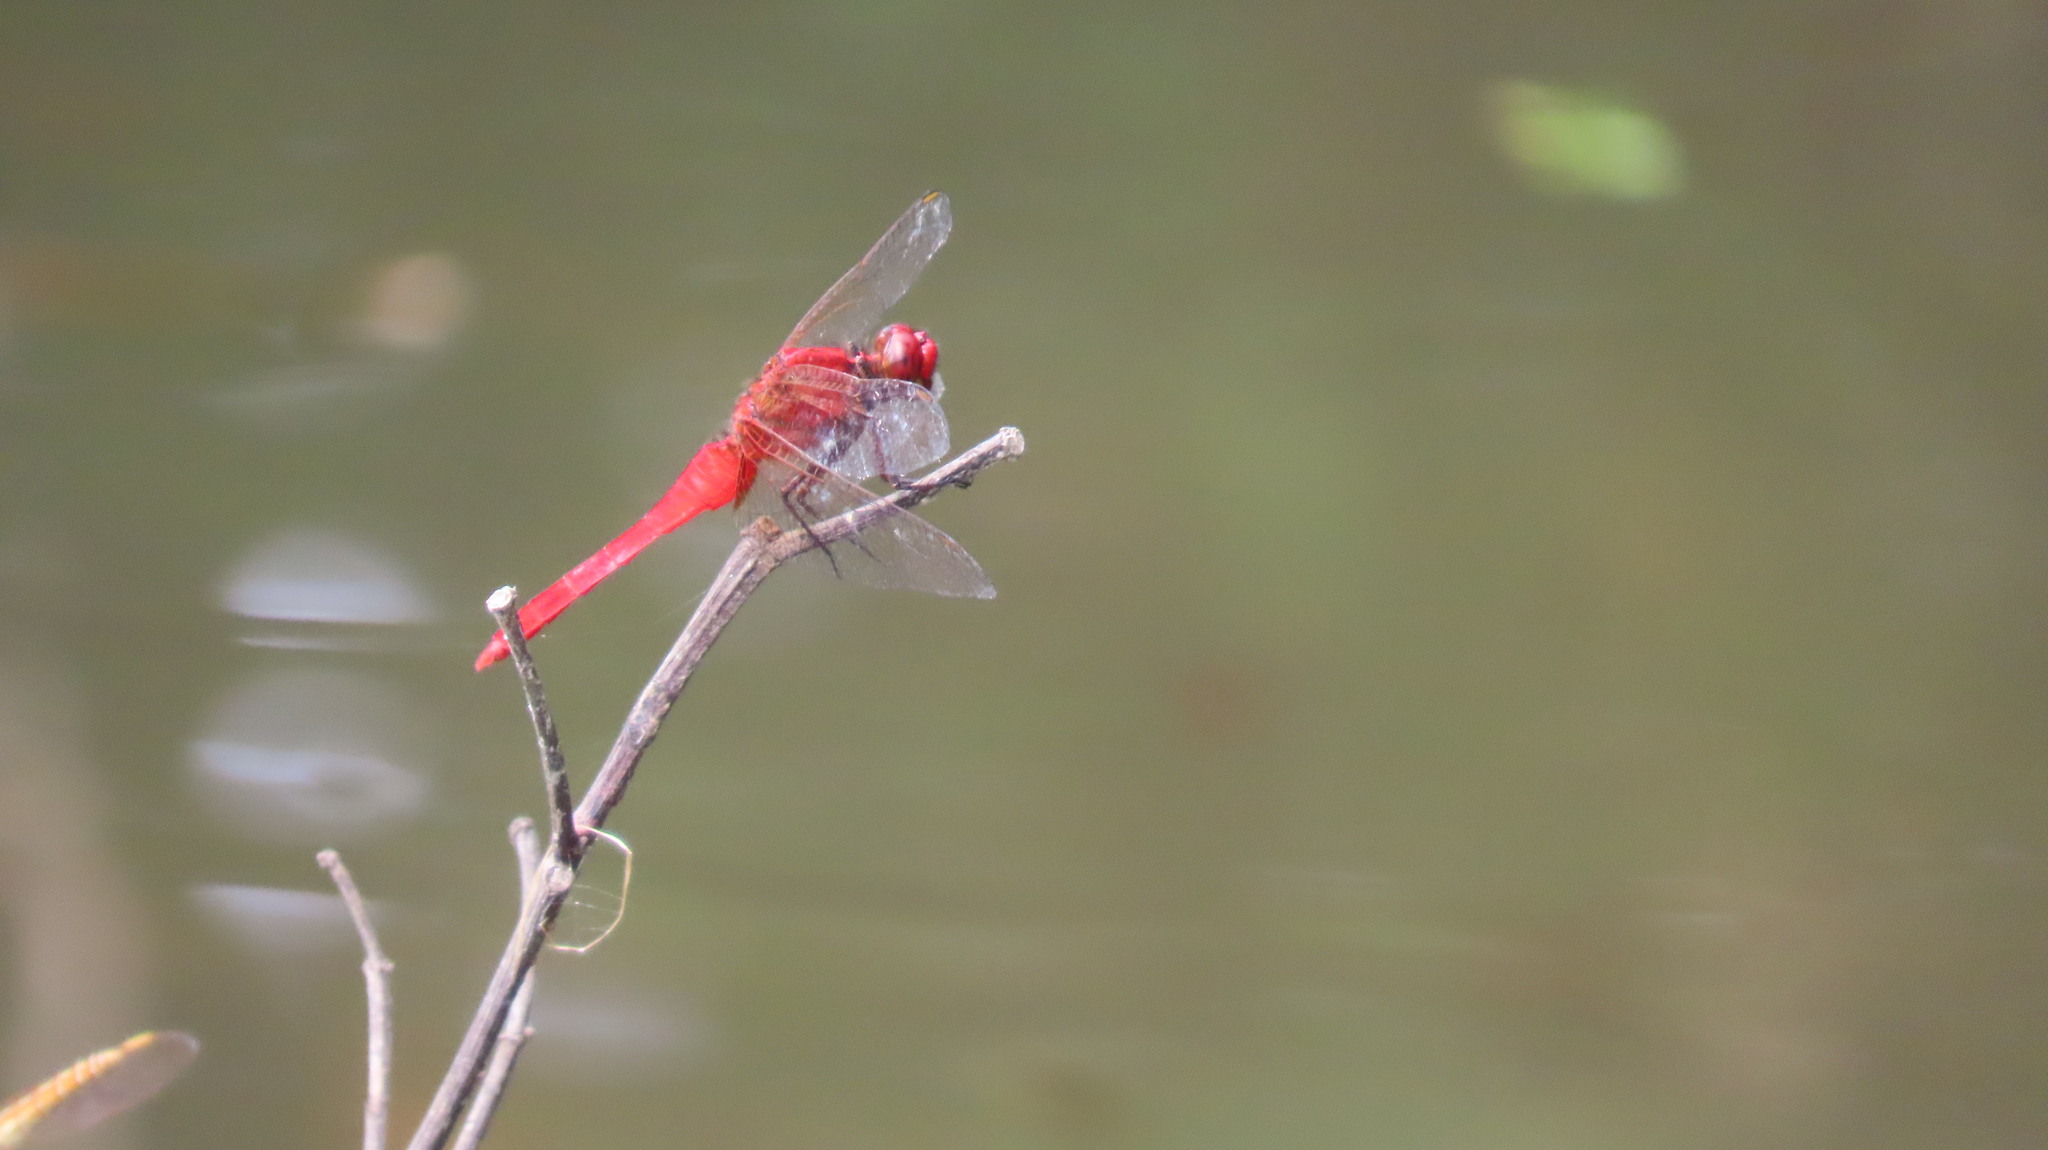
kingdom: Animalia
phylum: Arthropoda
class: Insecta
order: Odonata
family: Libellulidae
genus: Rhodothemis
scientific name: Rhodothemis rufa
